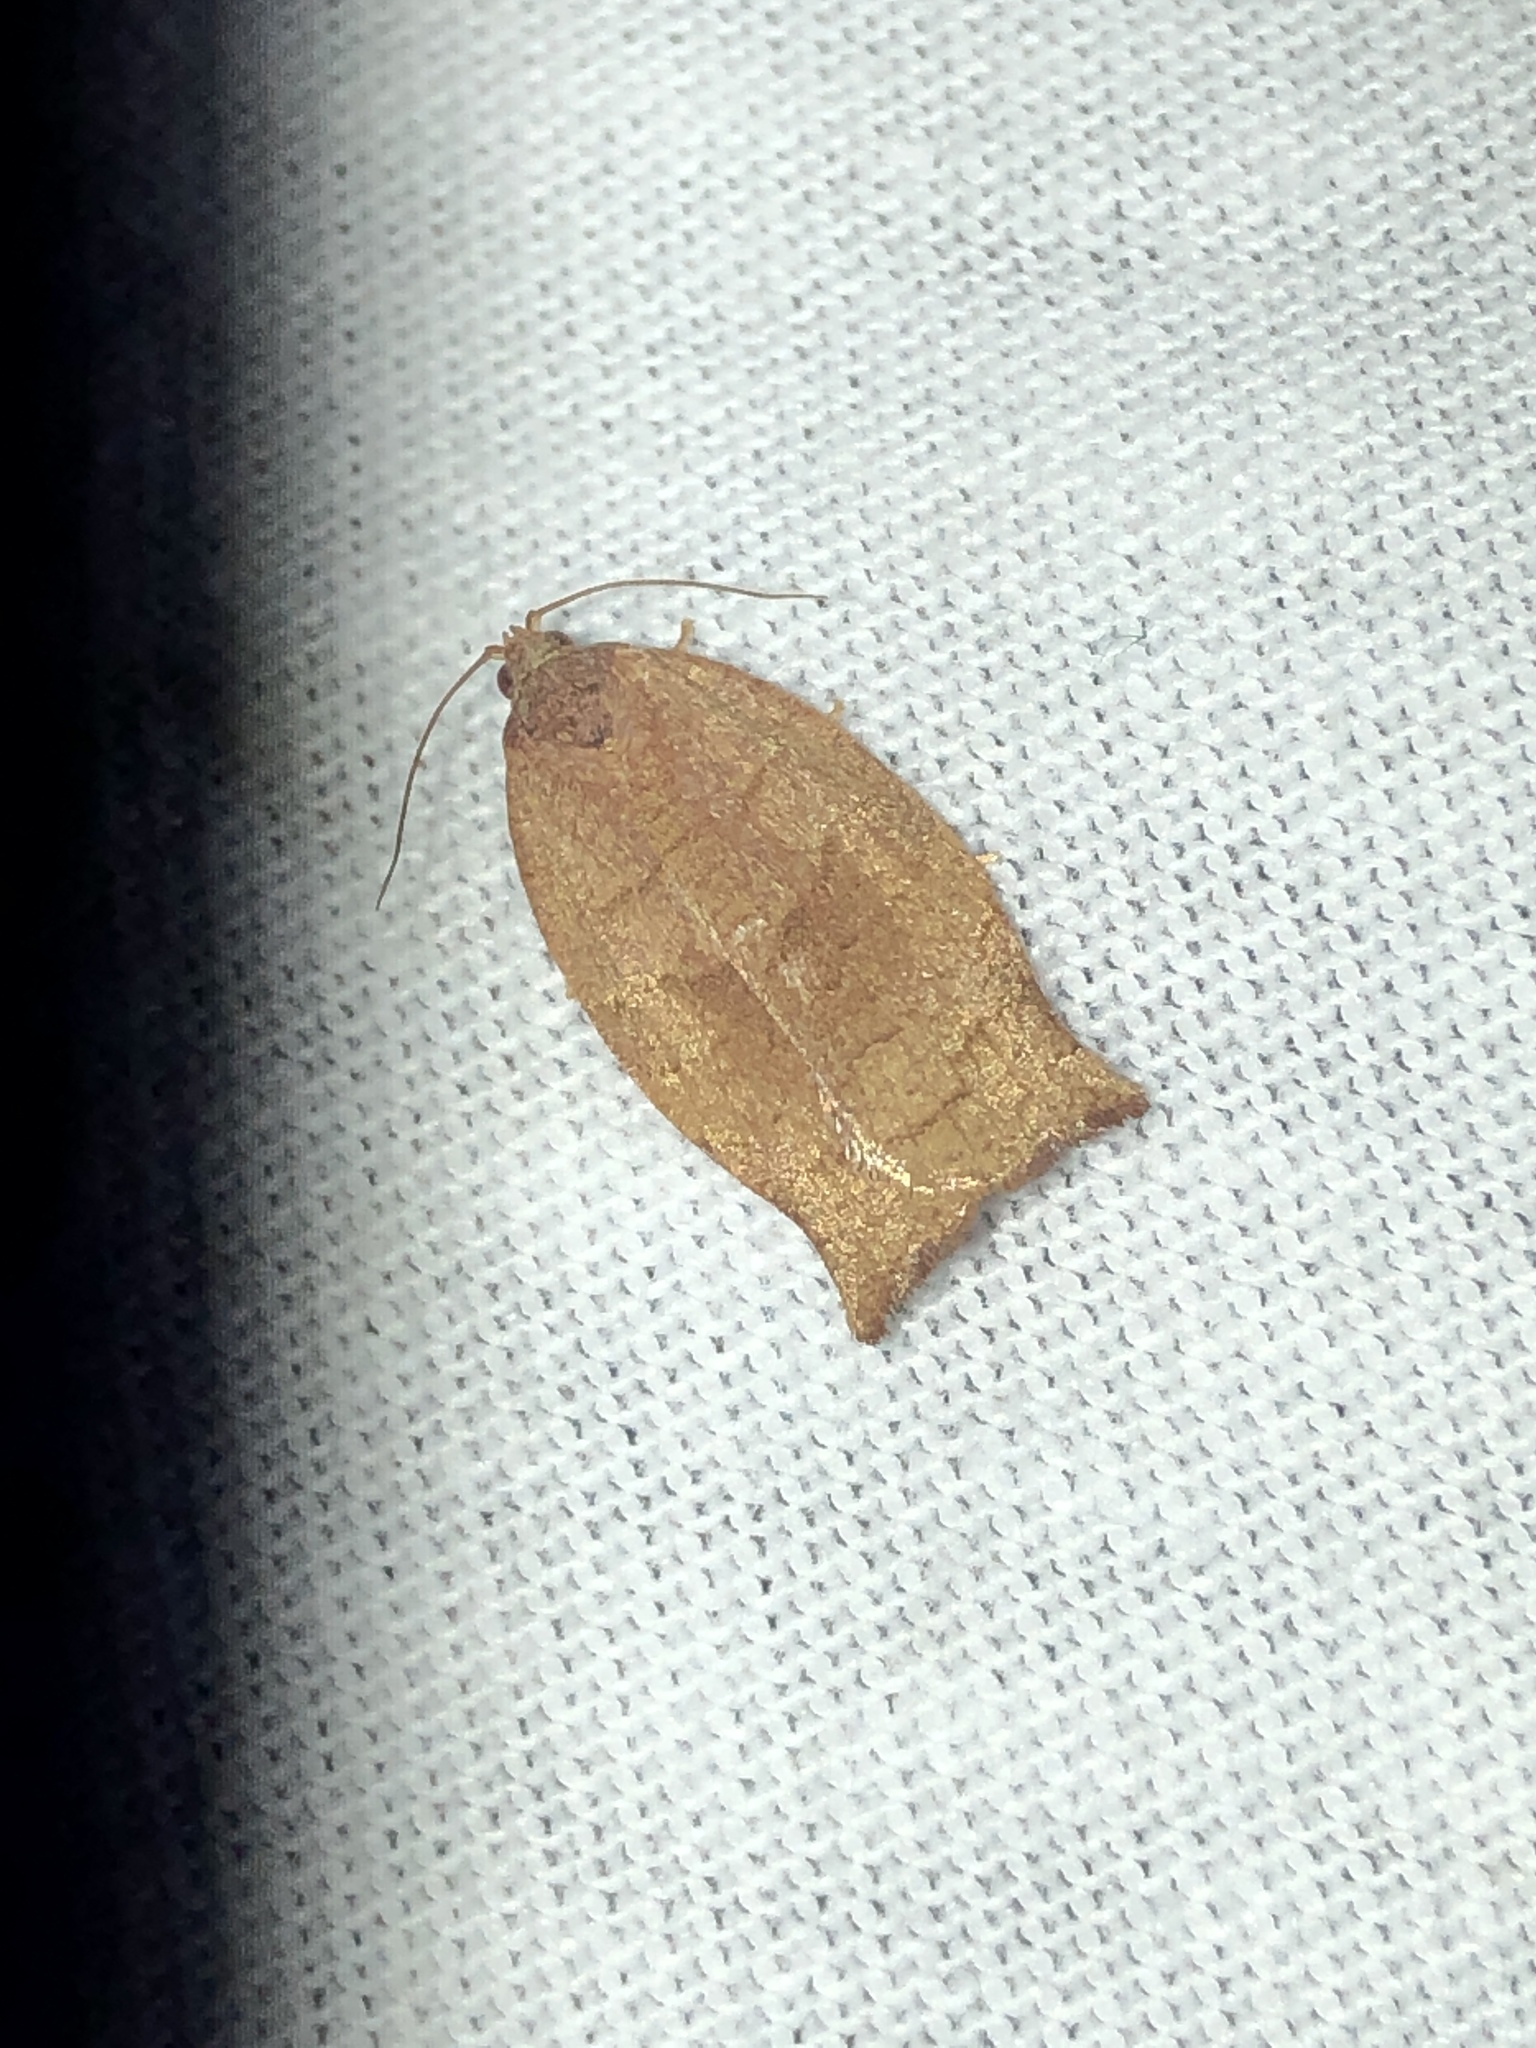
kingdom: Animalia
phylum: Arthropoda
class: Insecta
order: Lepidoptera
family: Tortricidae
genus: Choristoneura
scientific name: Choristoneura rosaceana
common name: Oblique-banded leafroller moth
